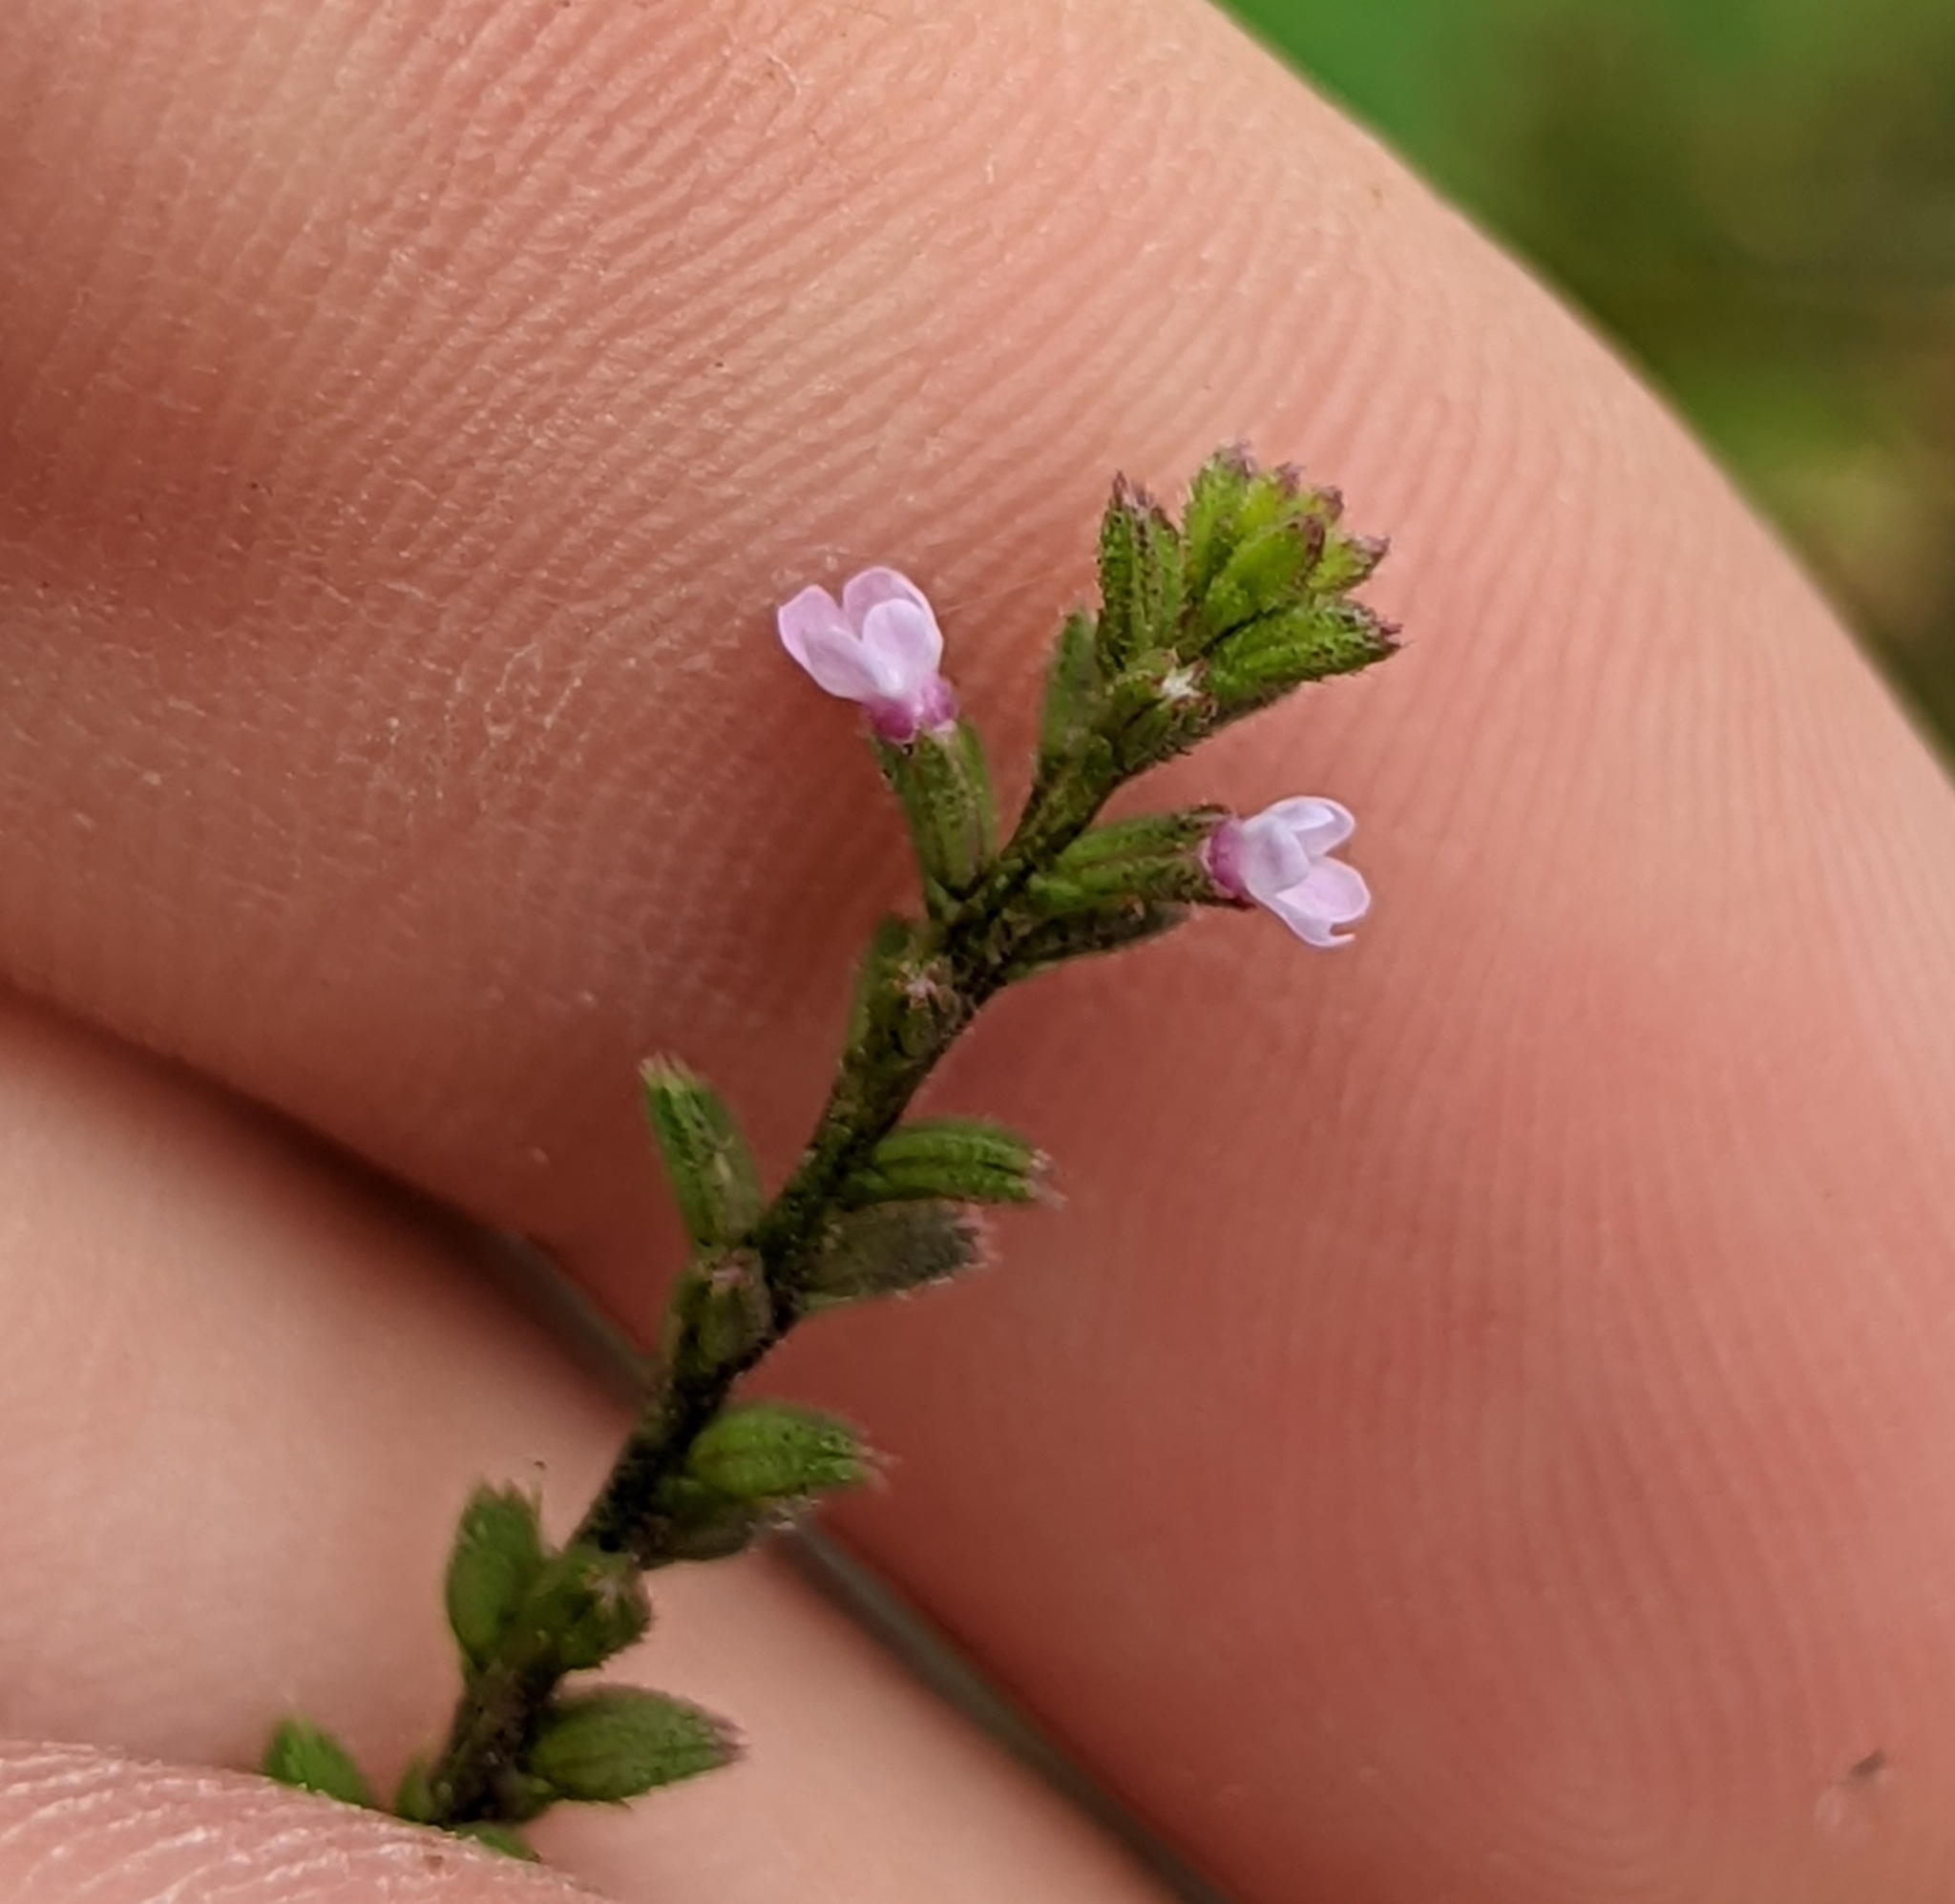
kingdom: Plantae
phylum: Tracheophyta
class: Magnoliopsida
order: Lamiales
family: Verbenaceae
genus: Verbena
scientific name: Verbena scabra
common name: Sandpaper vervain
